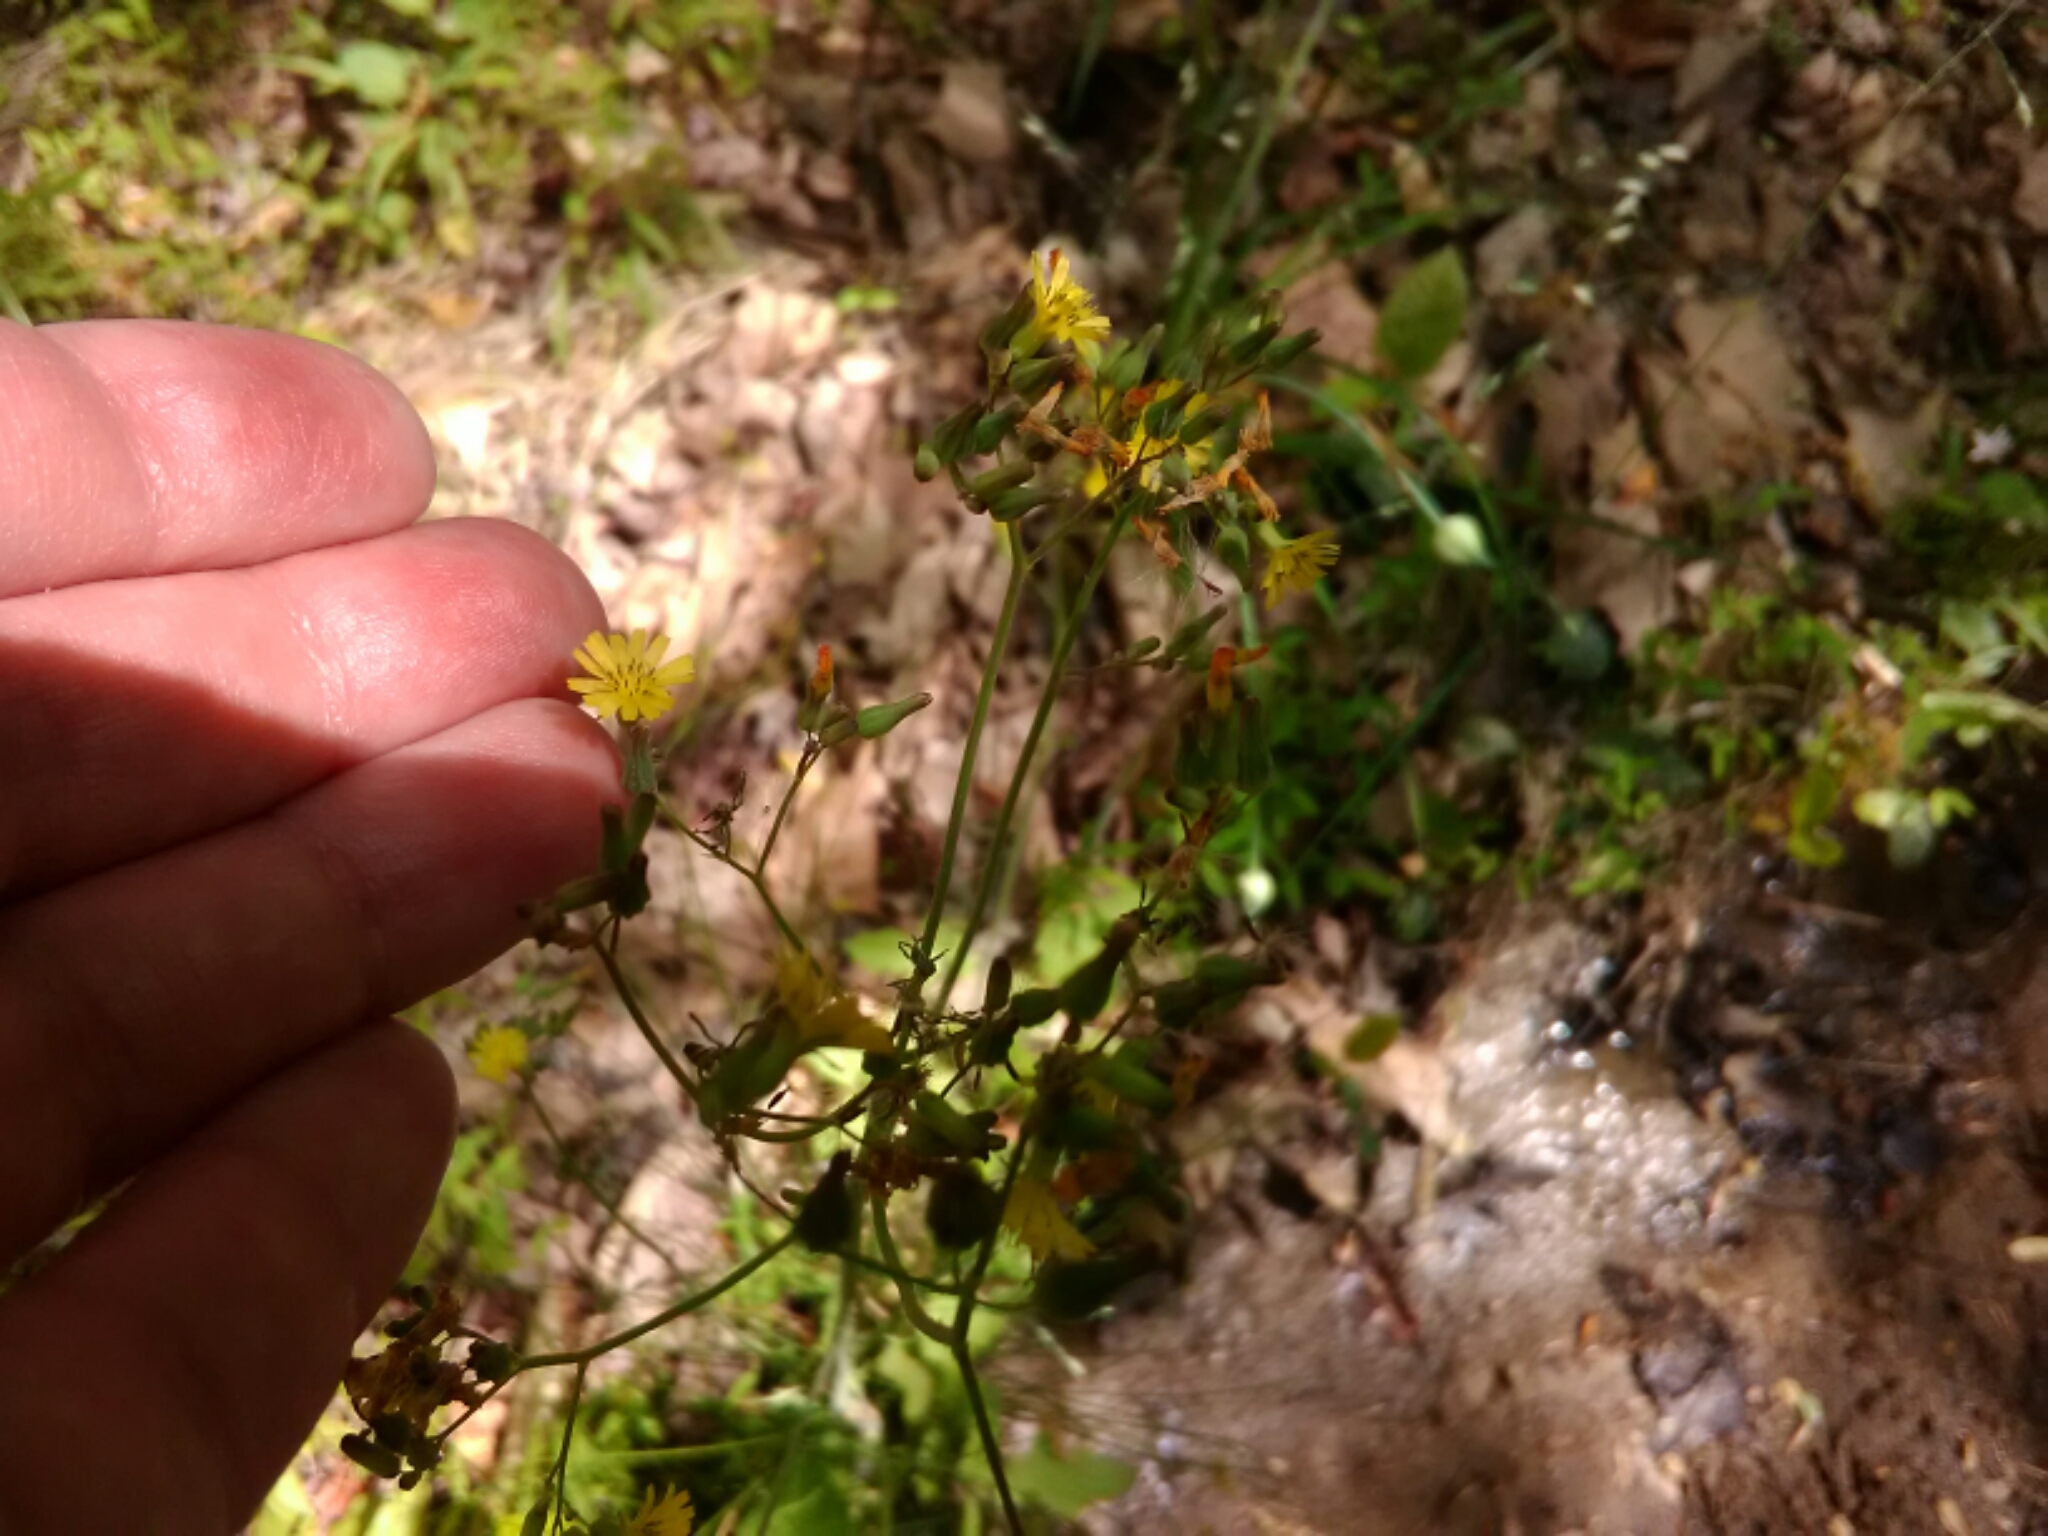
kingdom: Plantae
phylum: Tracheophyta
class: Magnoliopsida
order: Asterales
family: Asteraceae
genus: Youngia
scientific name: Youngia japonica
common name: Oriental false hawksbeard
